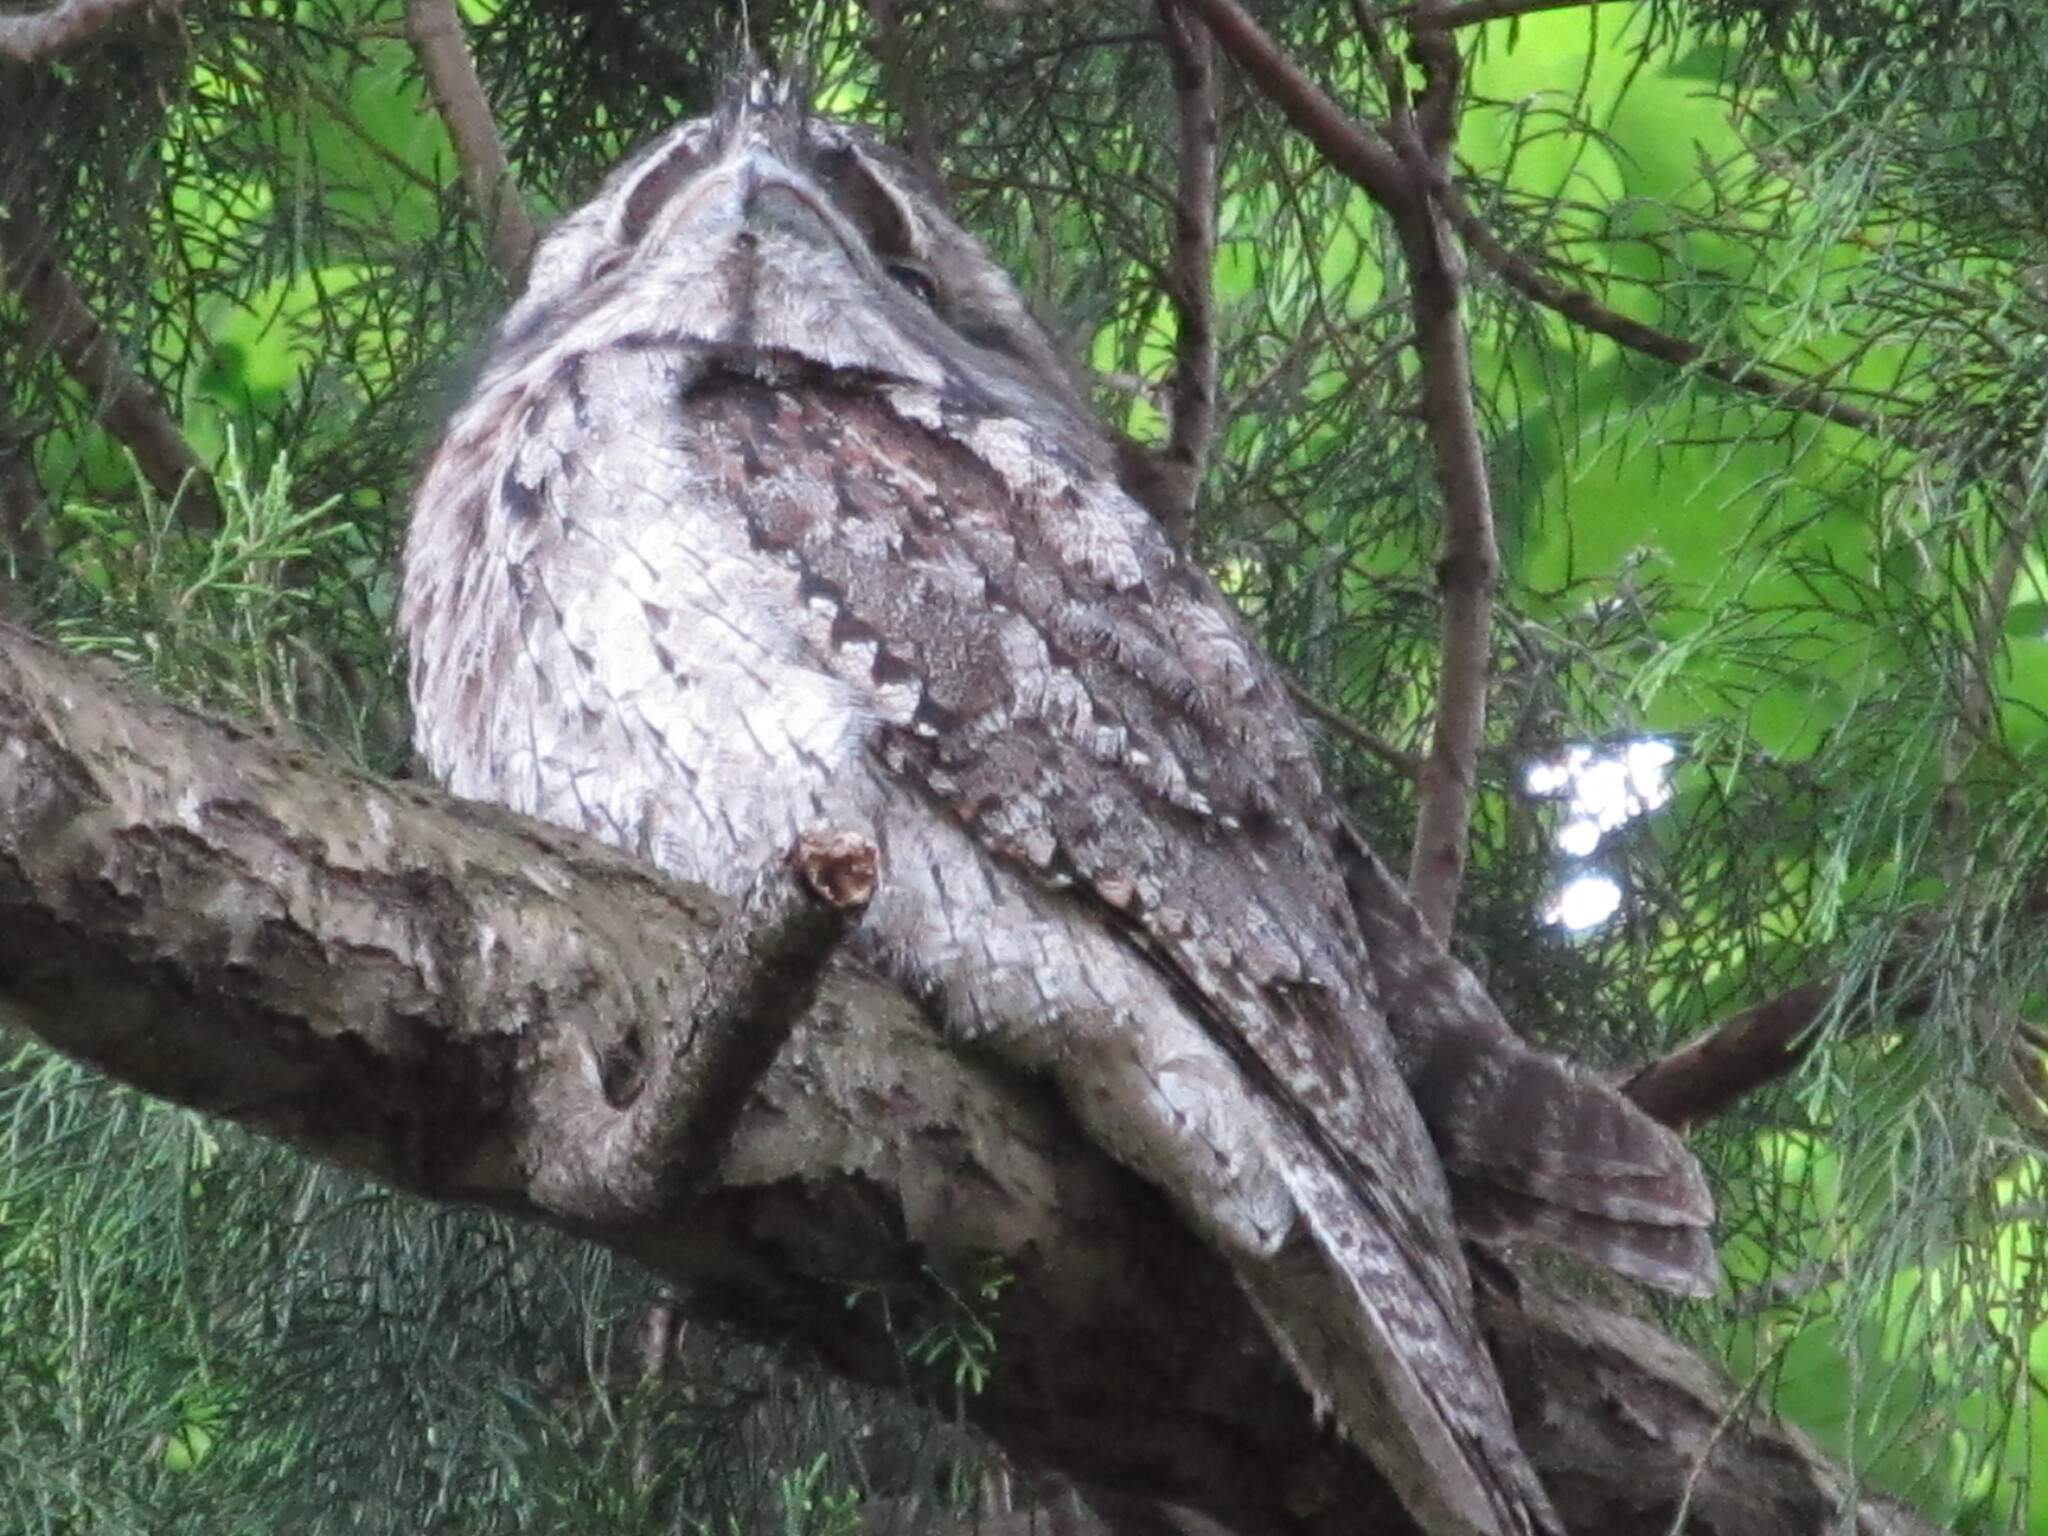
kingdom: Animalia
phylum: Chordata
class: Aves
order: Caprimulgiformes
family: Podargidae
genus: Podargus
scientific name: Podargus strigoides
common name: Tawny frogmouth
